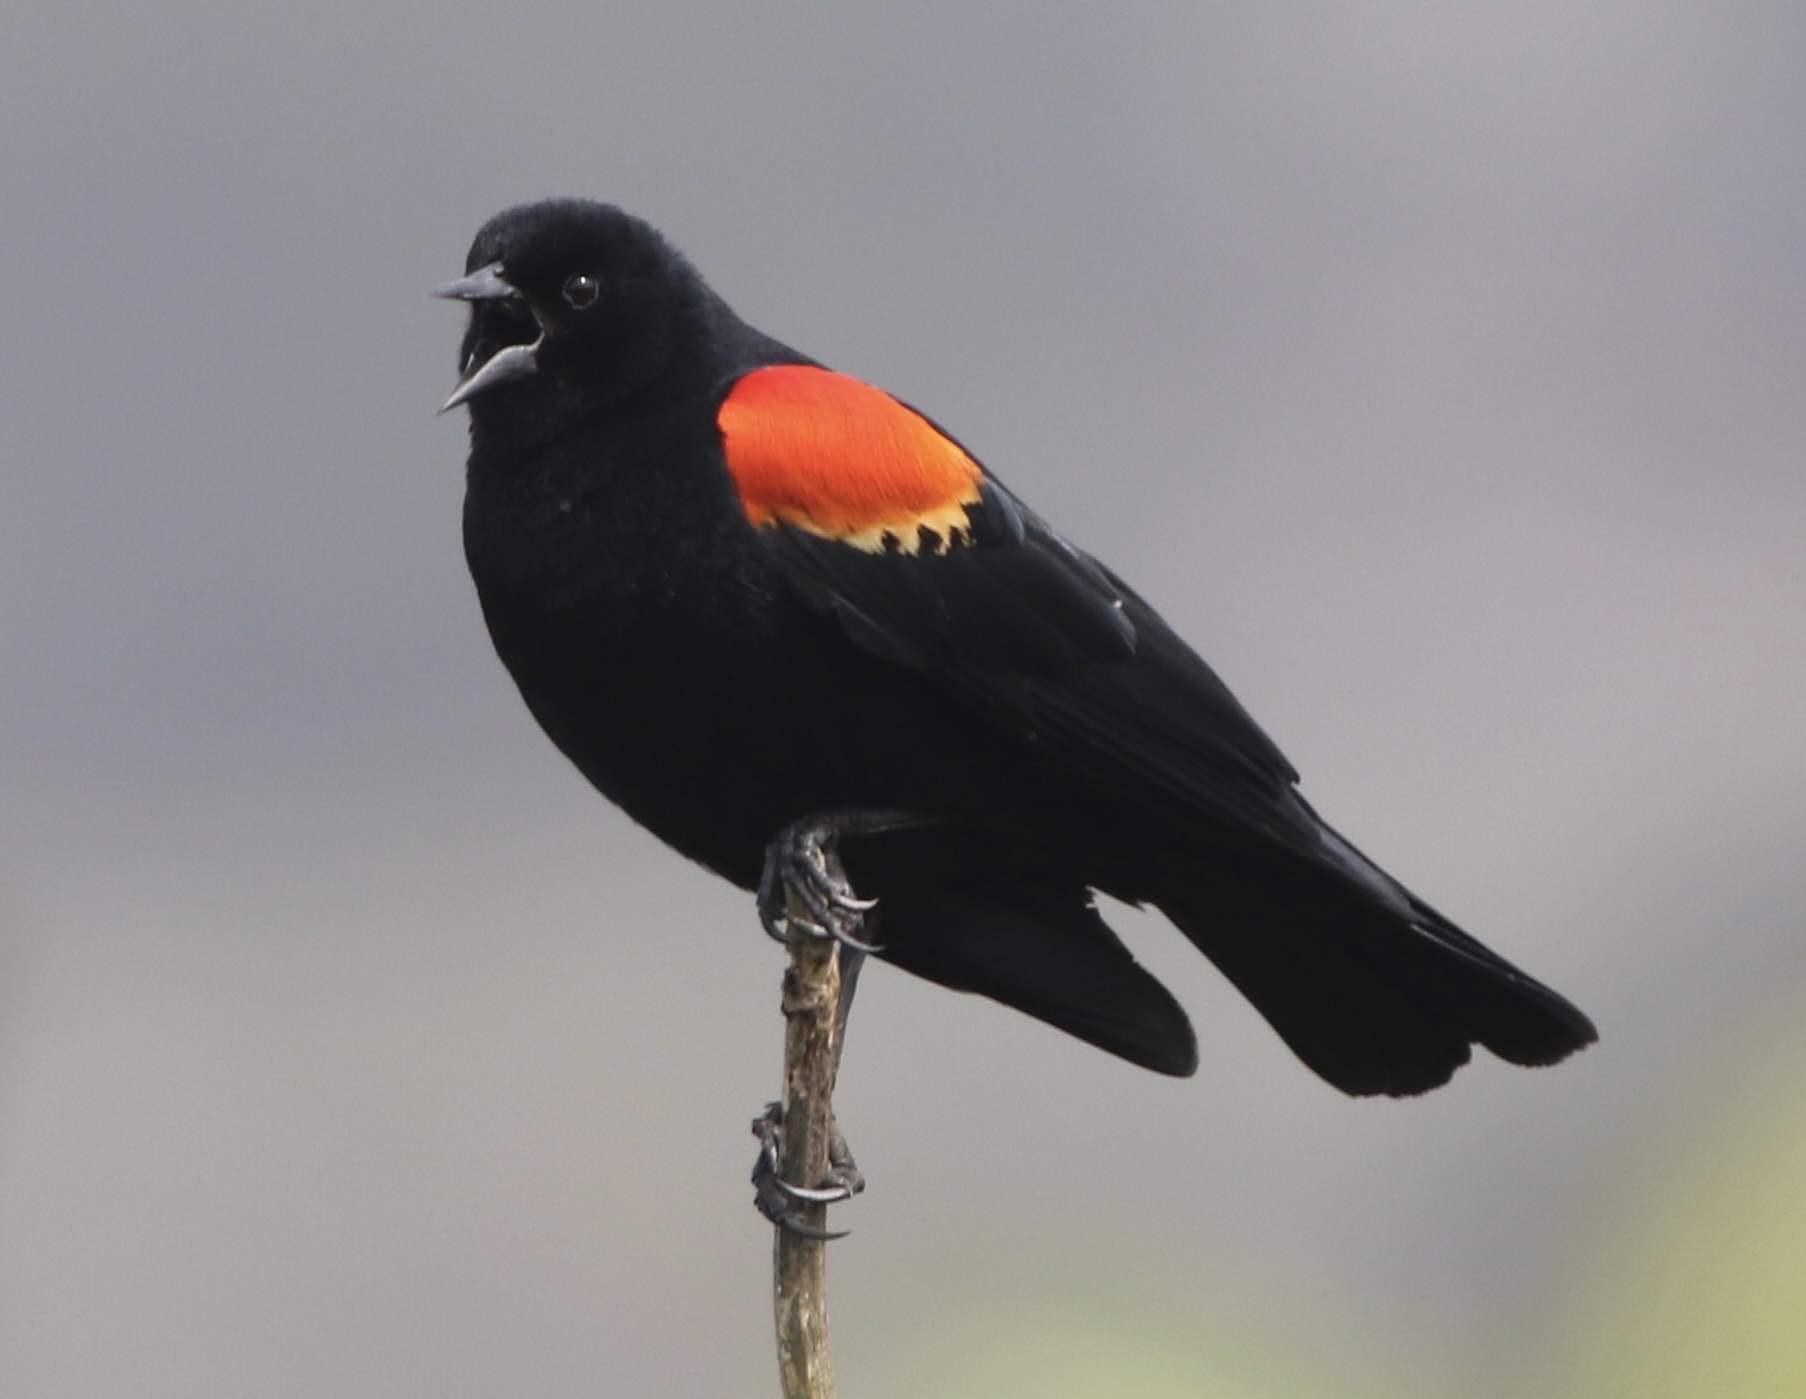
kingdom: Animalia
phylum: Chordata
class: Aves
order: Passeriformes
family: Icteridae
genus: Agelaius
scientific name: Agelaius phoeniceus
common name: Red-winged blackbird
